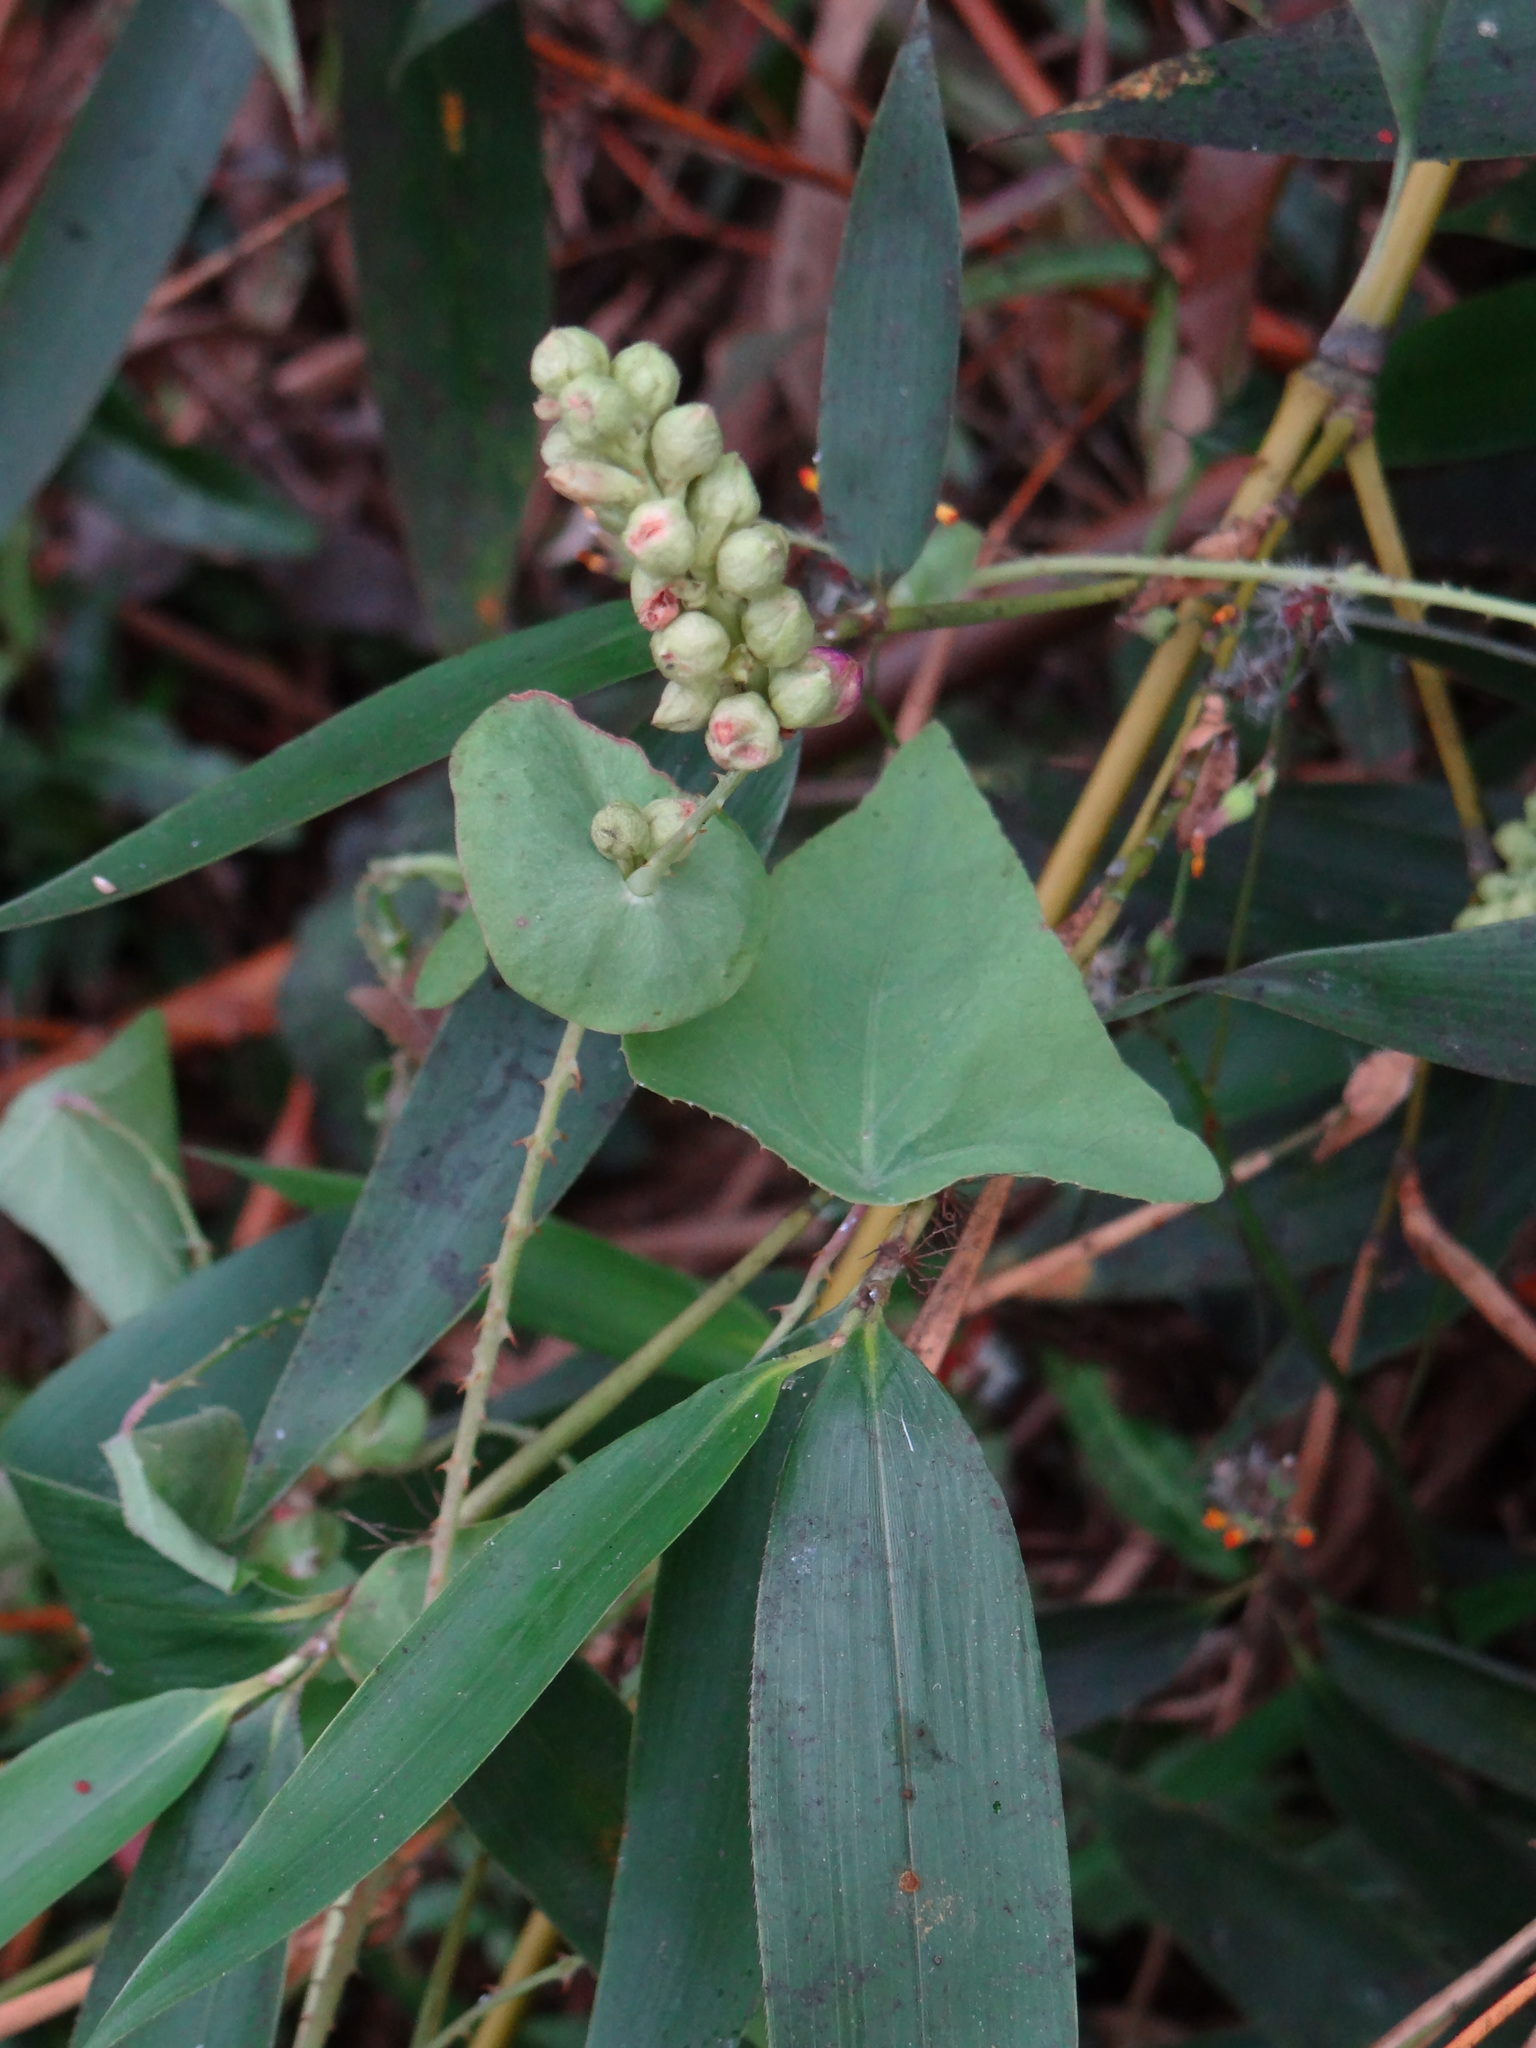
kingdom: Plantae
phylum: Tracheophyta
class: Magnoliopsida
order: Caryophyllales
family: Polygonaceae
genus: Persicaria
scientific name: Persicaria perfoliata
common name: Asiatic tearthumb
